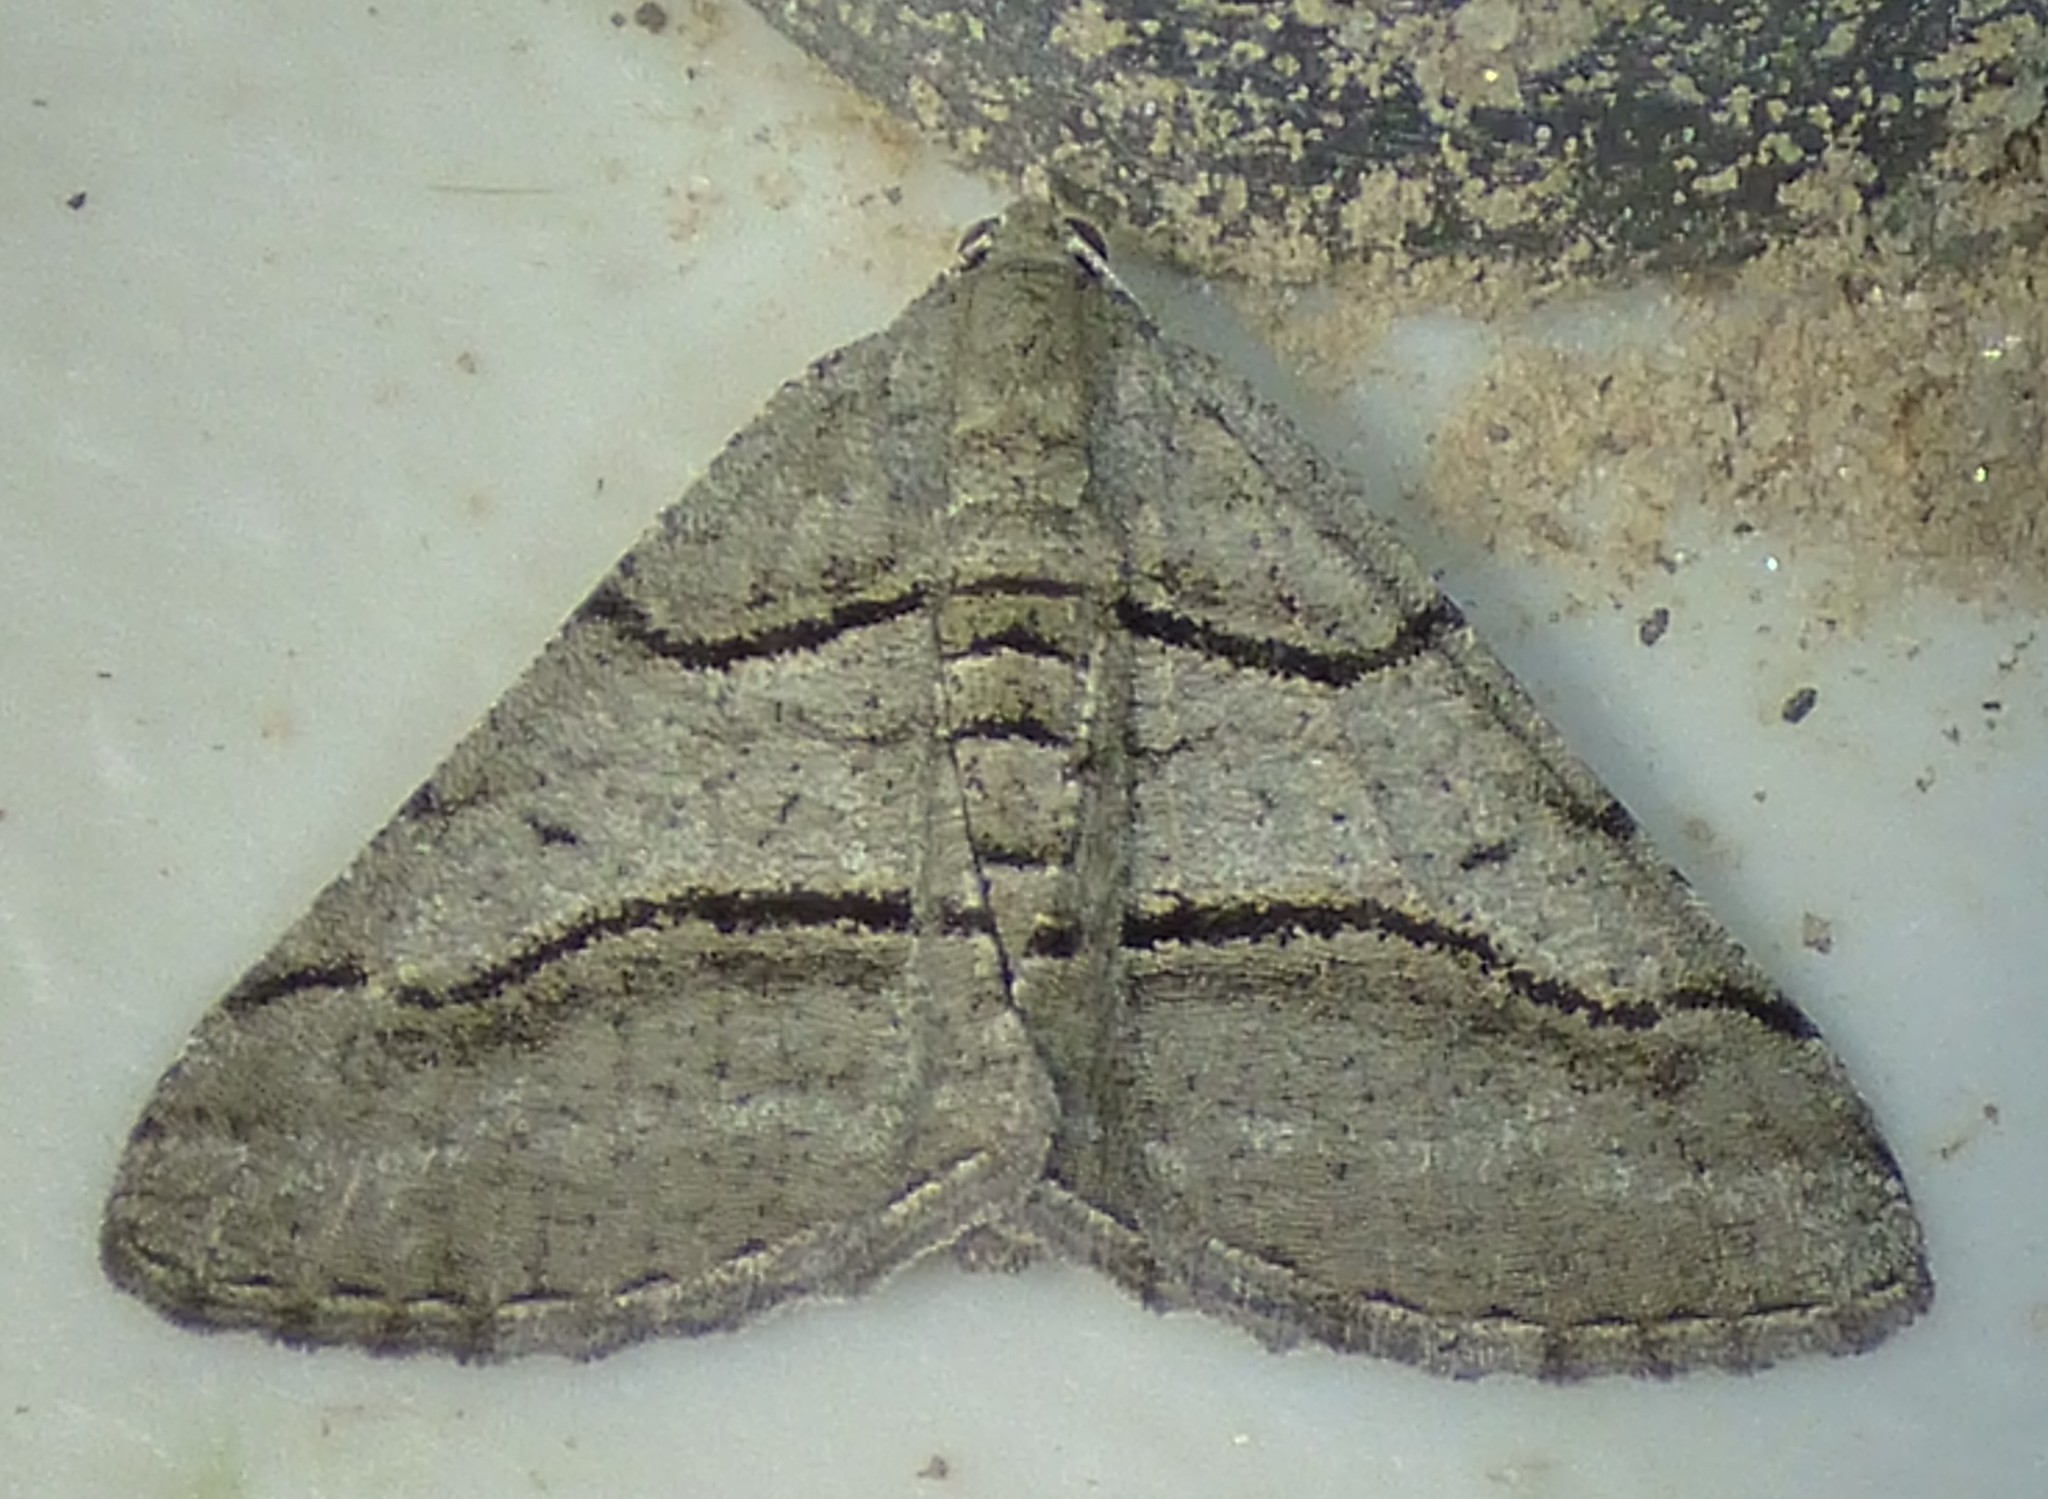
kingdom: Animalia
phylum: Arthropoda
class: Insecta
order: Lepidoptera
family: Geometridae
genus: Digrammia
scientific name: Digrammia continuata
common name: Curve-lined angle
